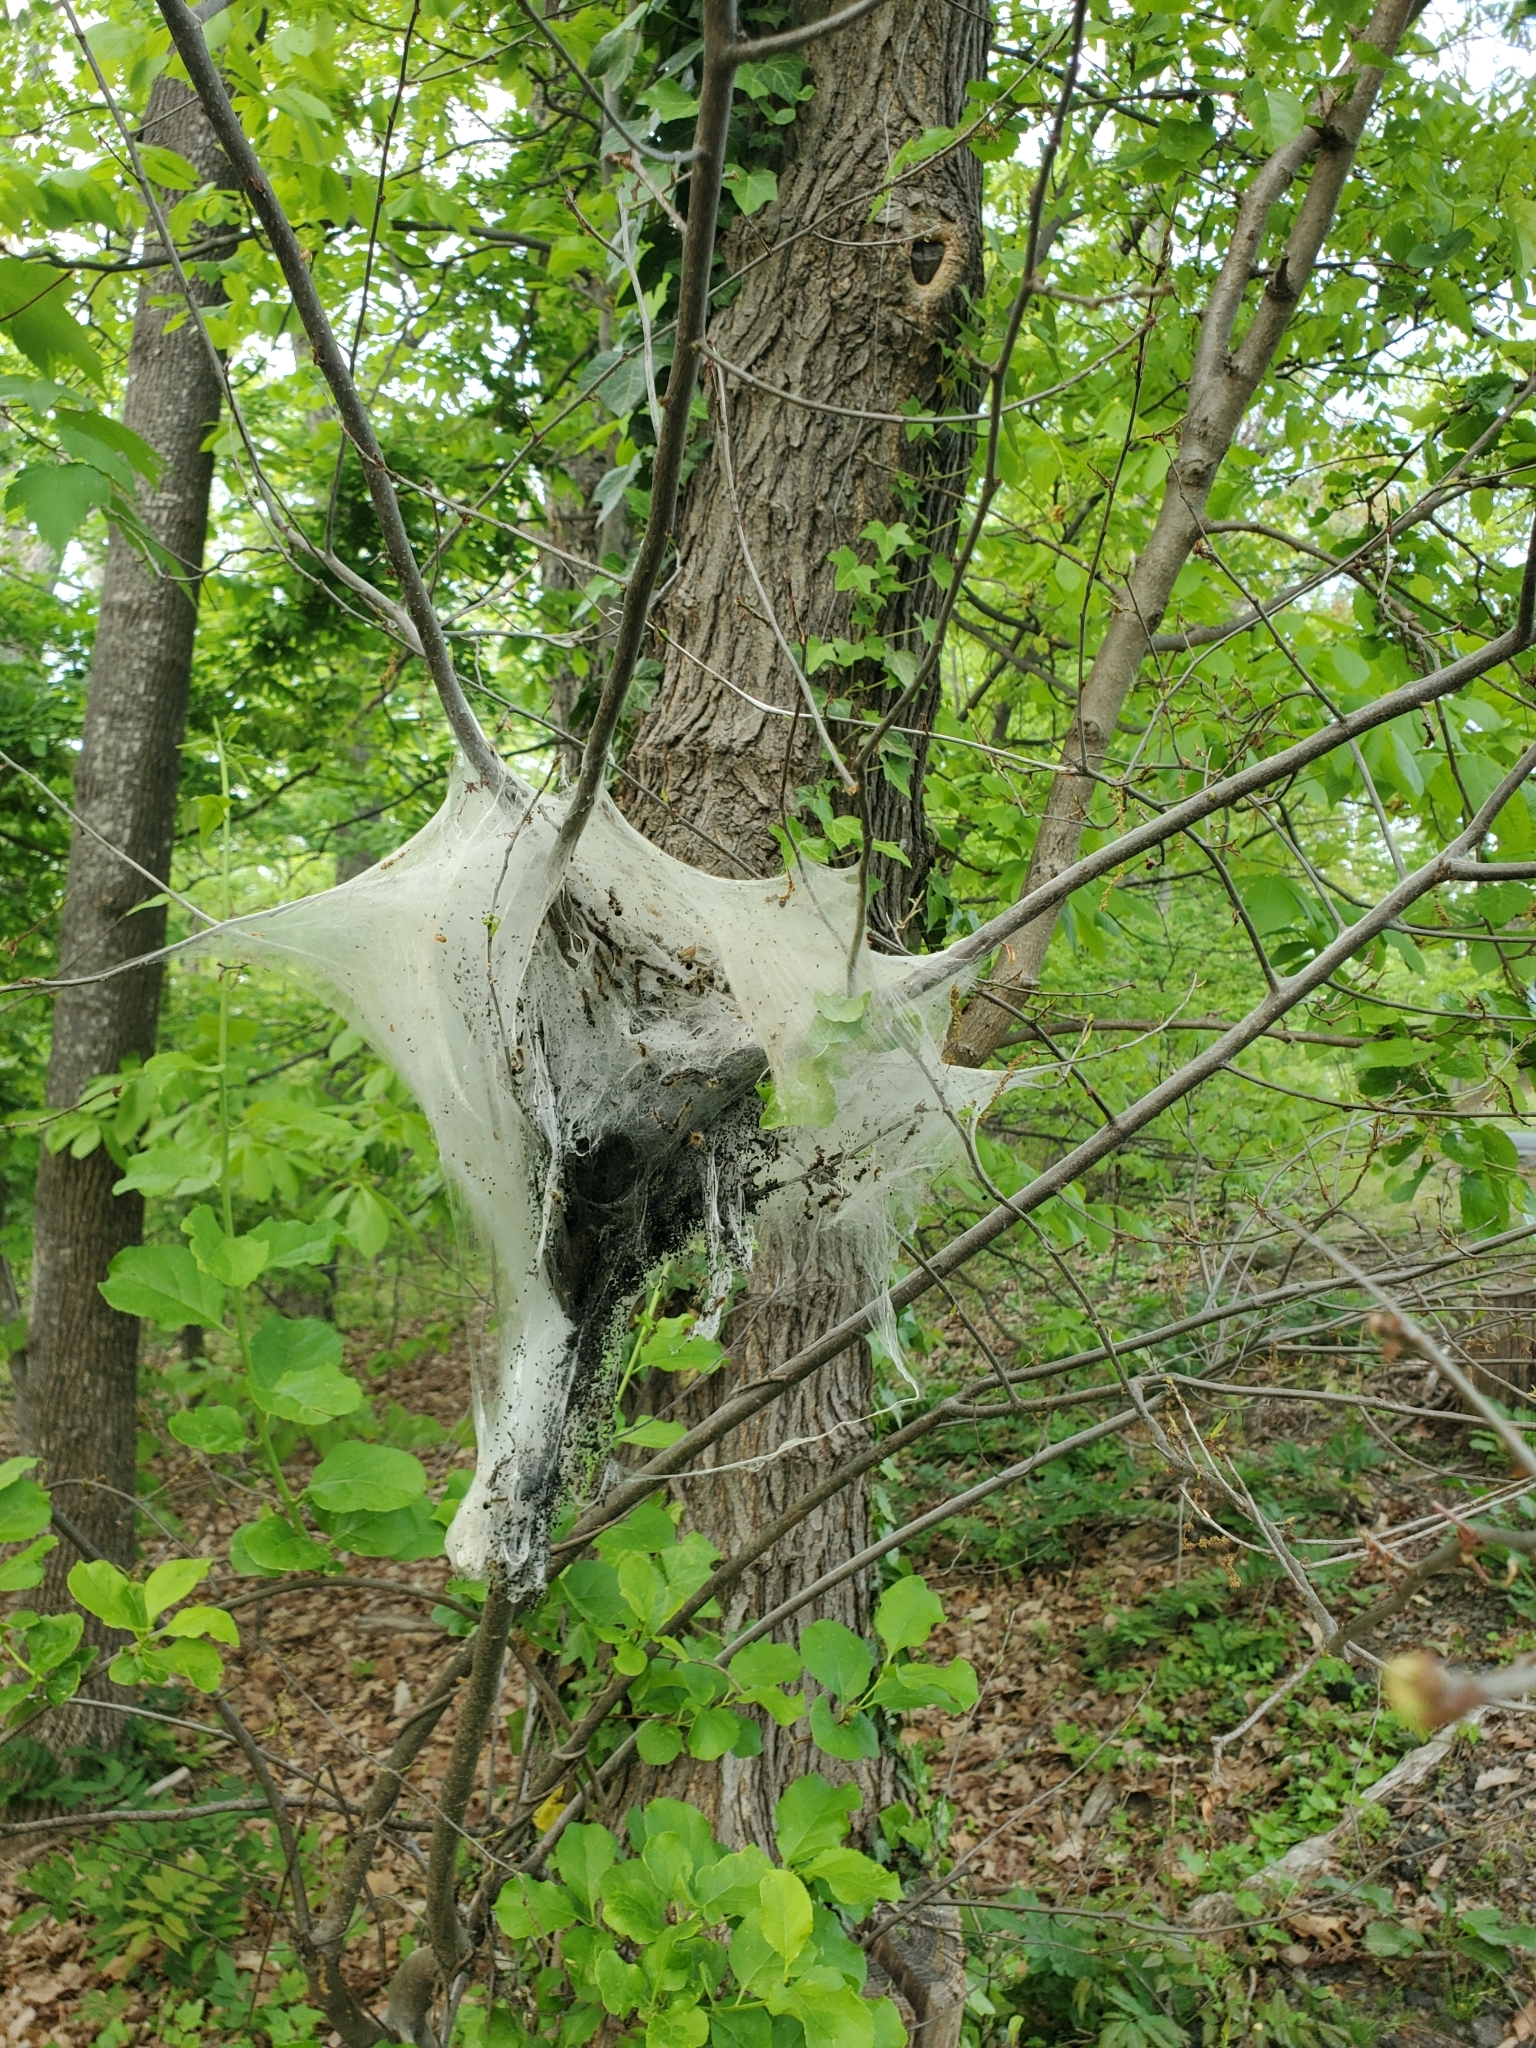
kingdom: Animalia
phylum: Arthropoda
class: Insecta
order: Lepidoptera
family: Lasiocampidae
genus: Malacosoma
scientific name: Malacosoma americana
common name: Eastern tent caterpillar moth
